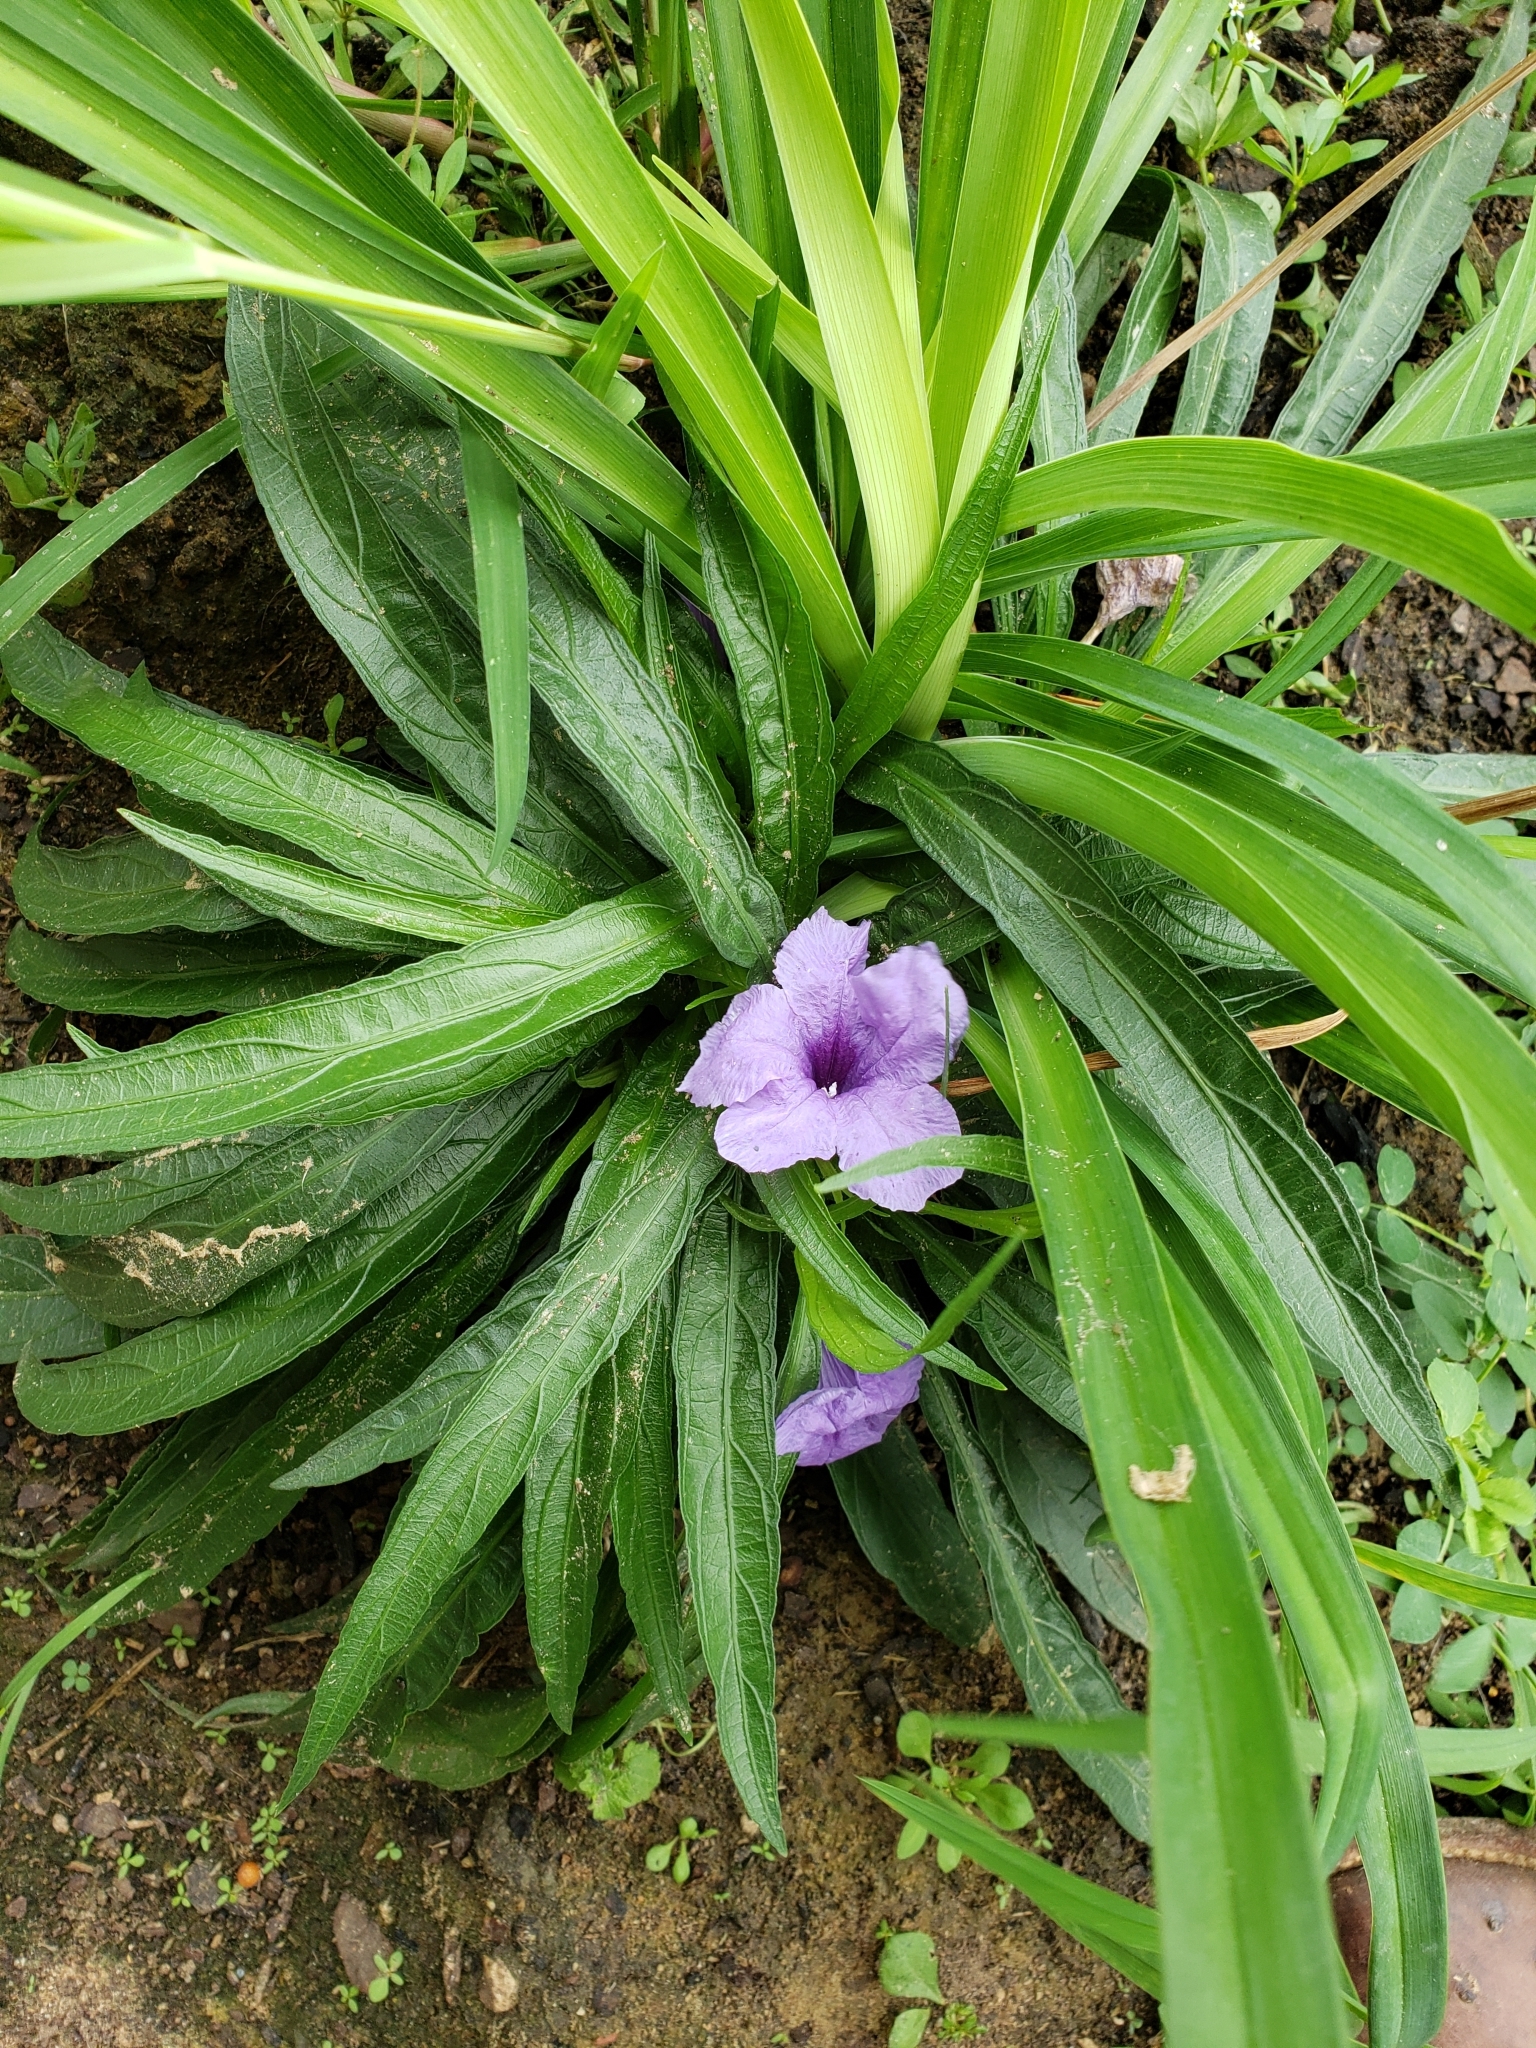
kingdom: Plantae
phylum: Tracheophyta
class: Magnoliopsida
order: Lamiales
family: Acanthaceae
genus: Ruellia
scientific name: Ruellia simplex
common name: Softseed wild petunia
